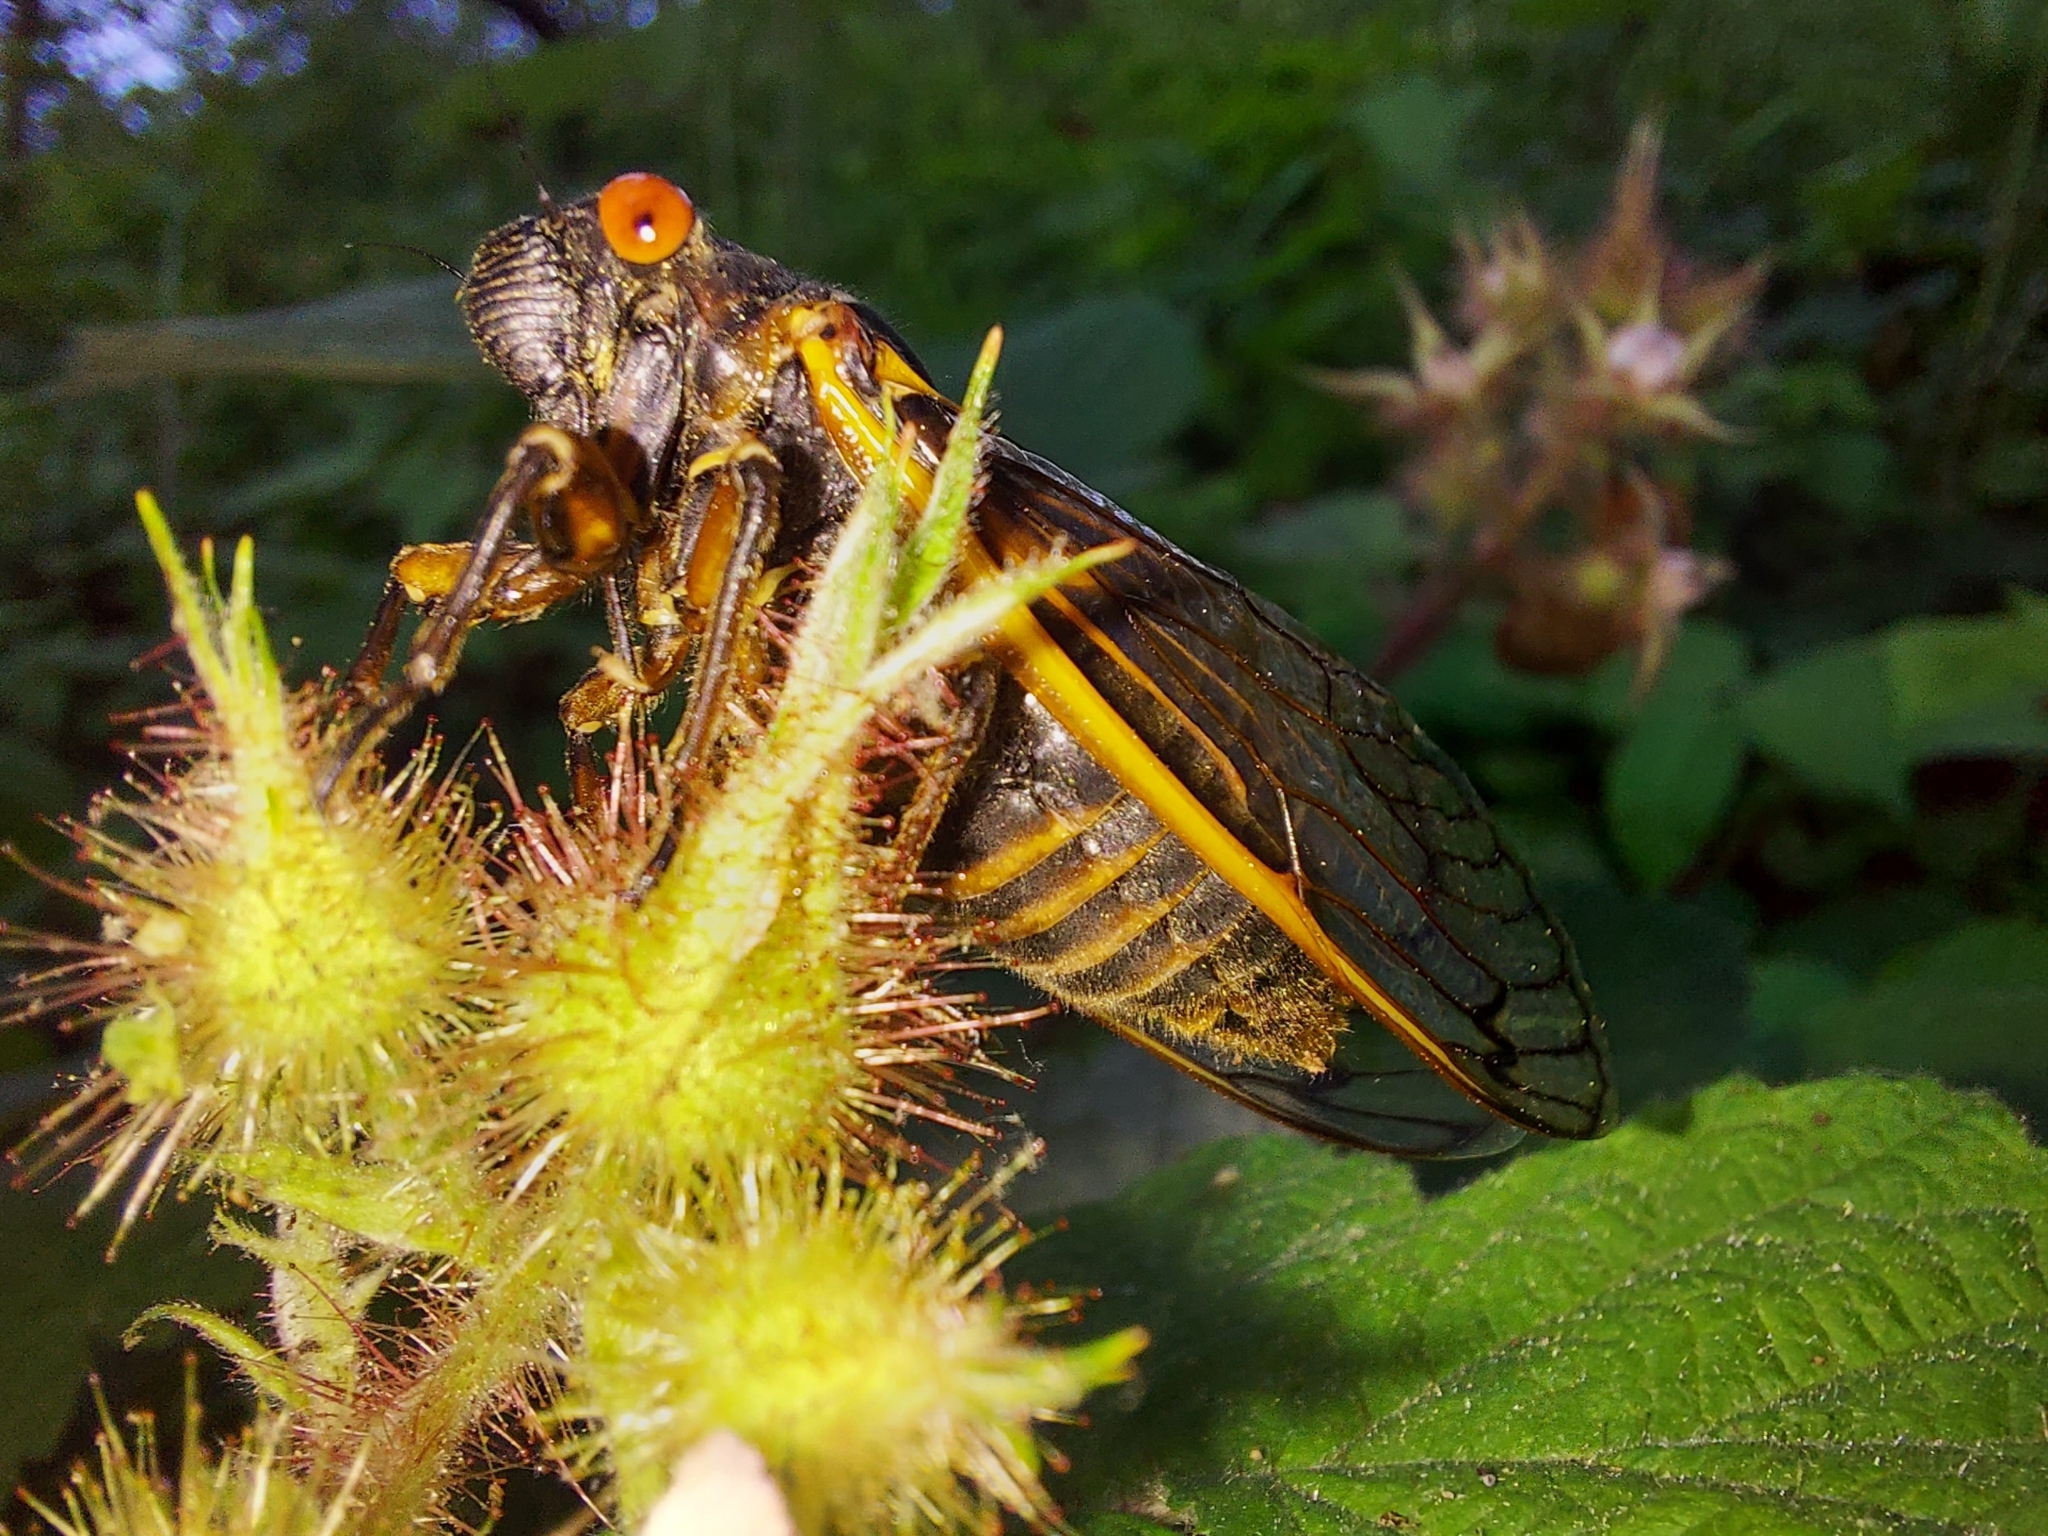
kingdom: Animalia
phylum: Arthropoda
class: Insecta
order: Hemiptera
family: Cicadidae
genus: Magicicada
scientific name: Magicicada septendecim
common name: Periodical cicada
